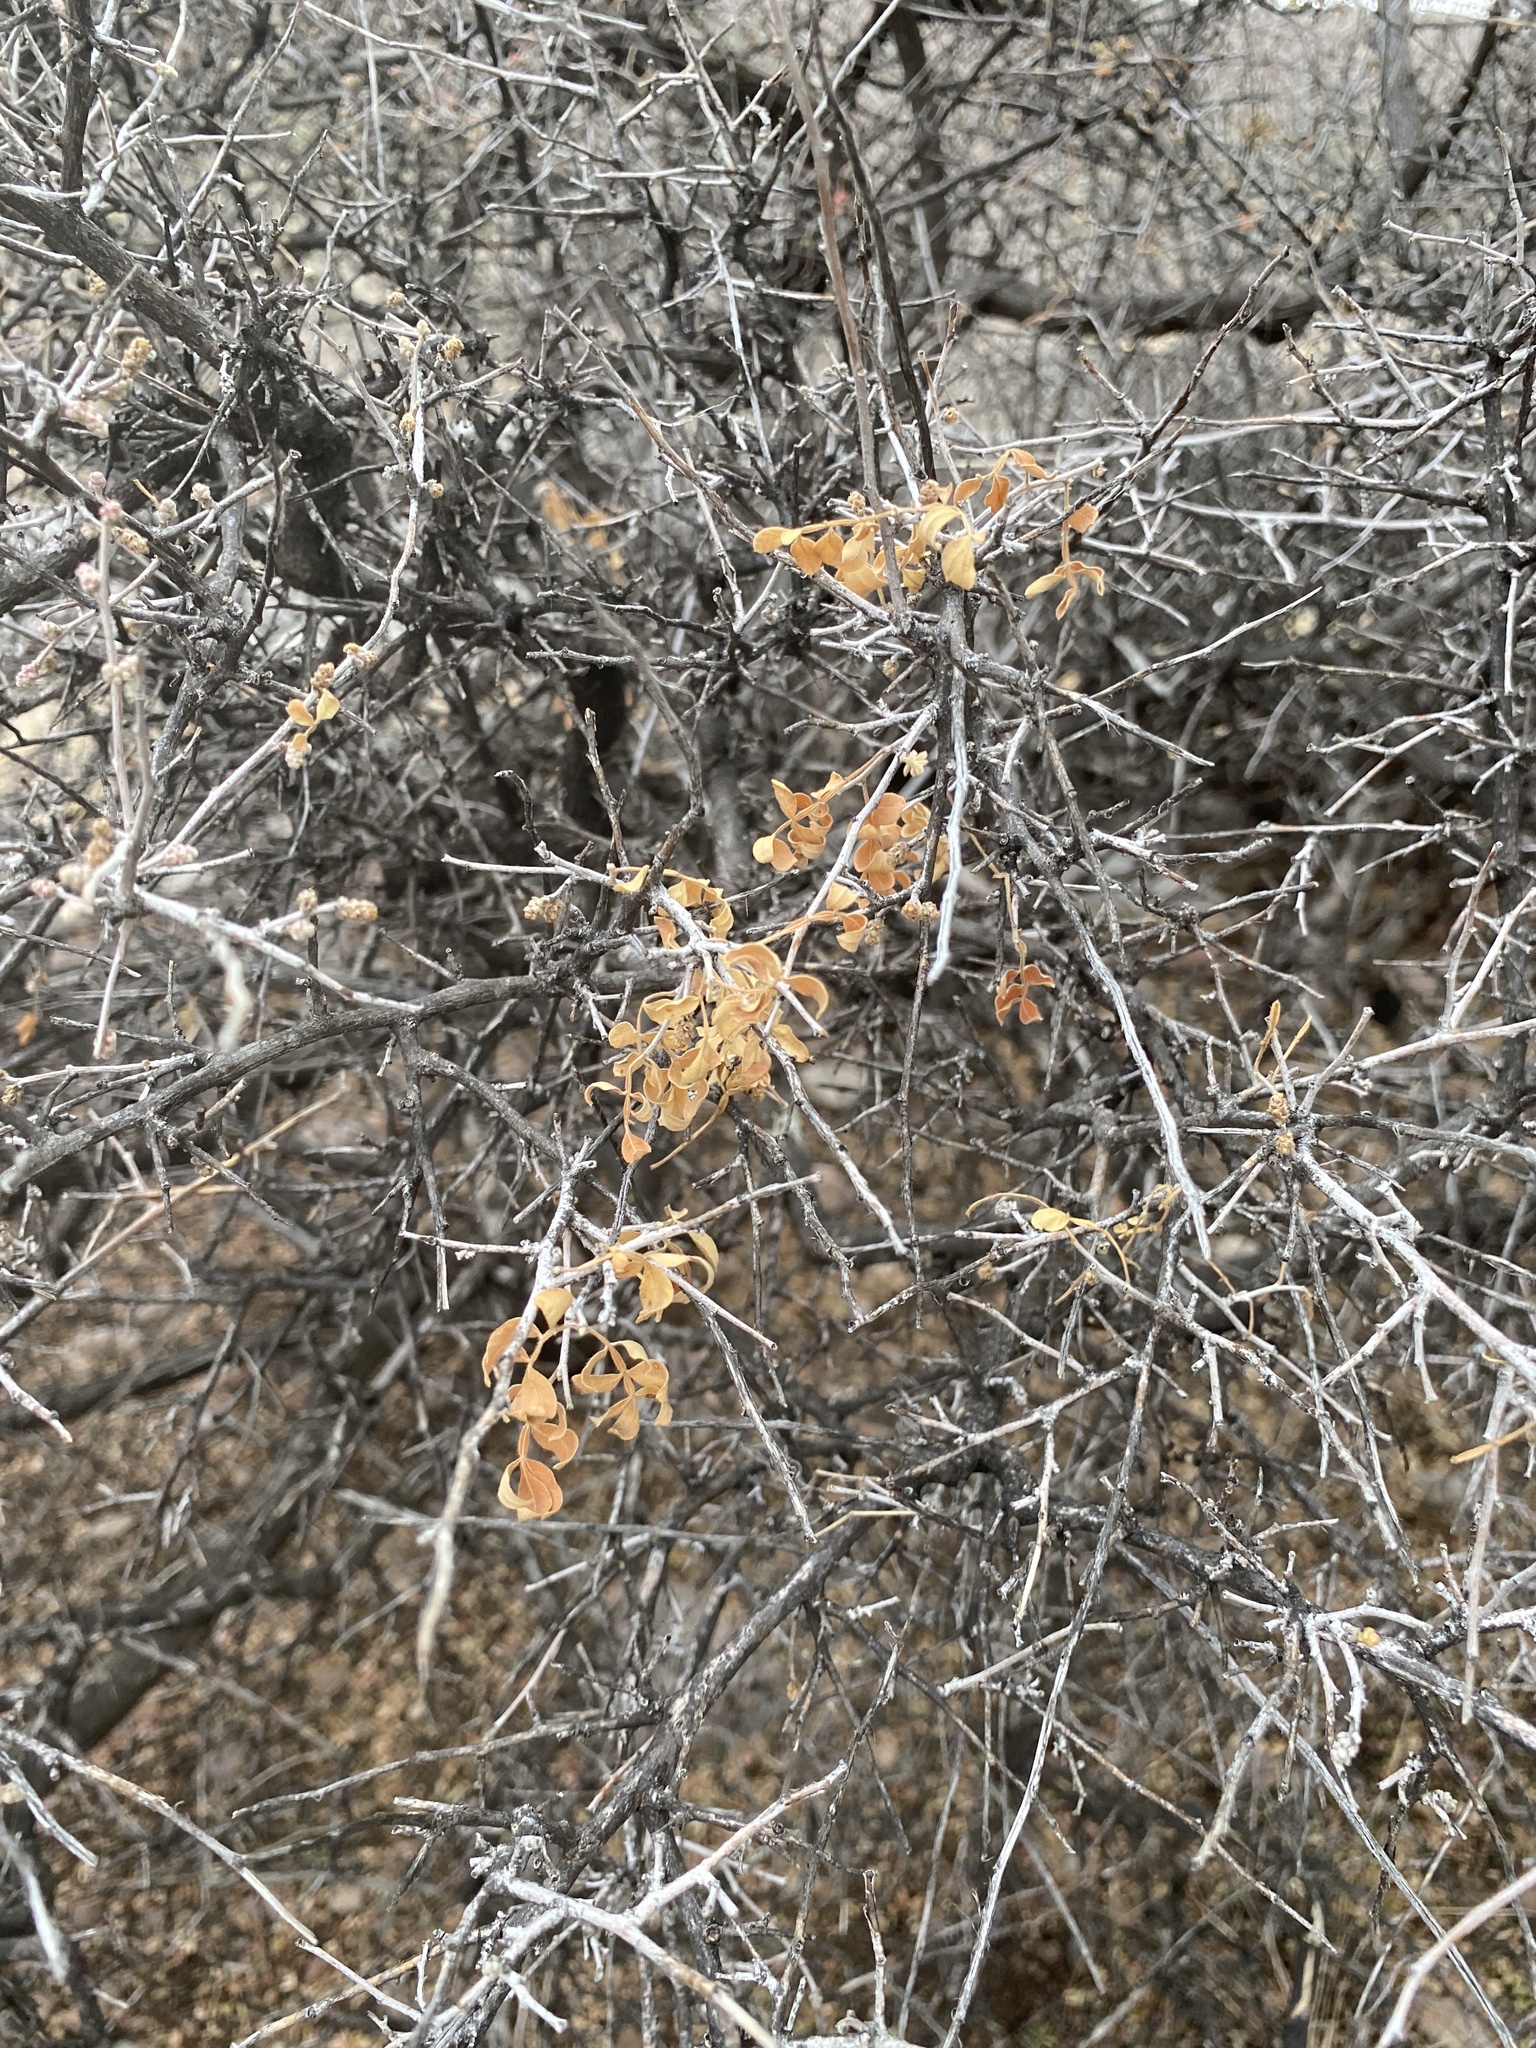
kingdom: Plantae
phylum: Tracheophyta
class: Magnoliopsida
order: Sapindales
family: Anacardiaceae
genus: Rhus
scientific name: Rhus microphylla
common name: Desert sumac
